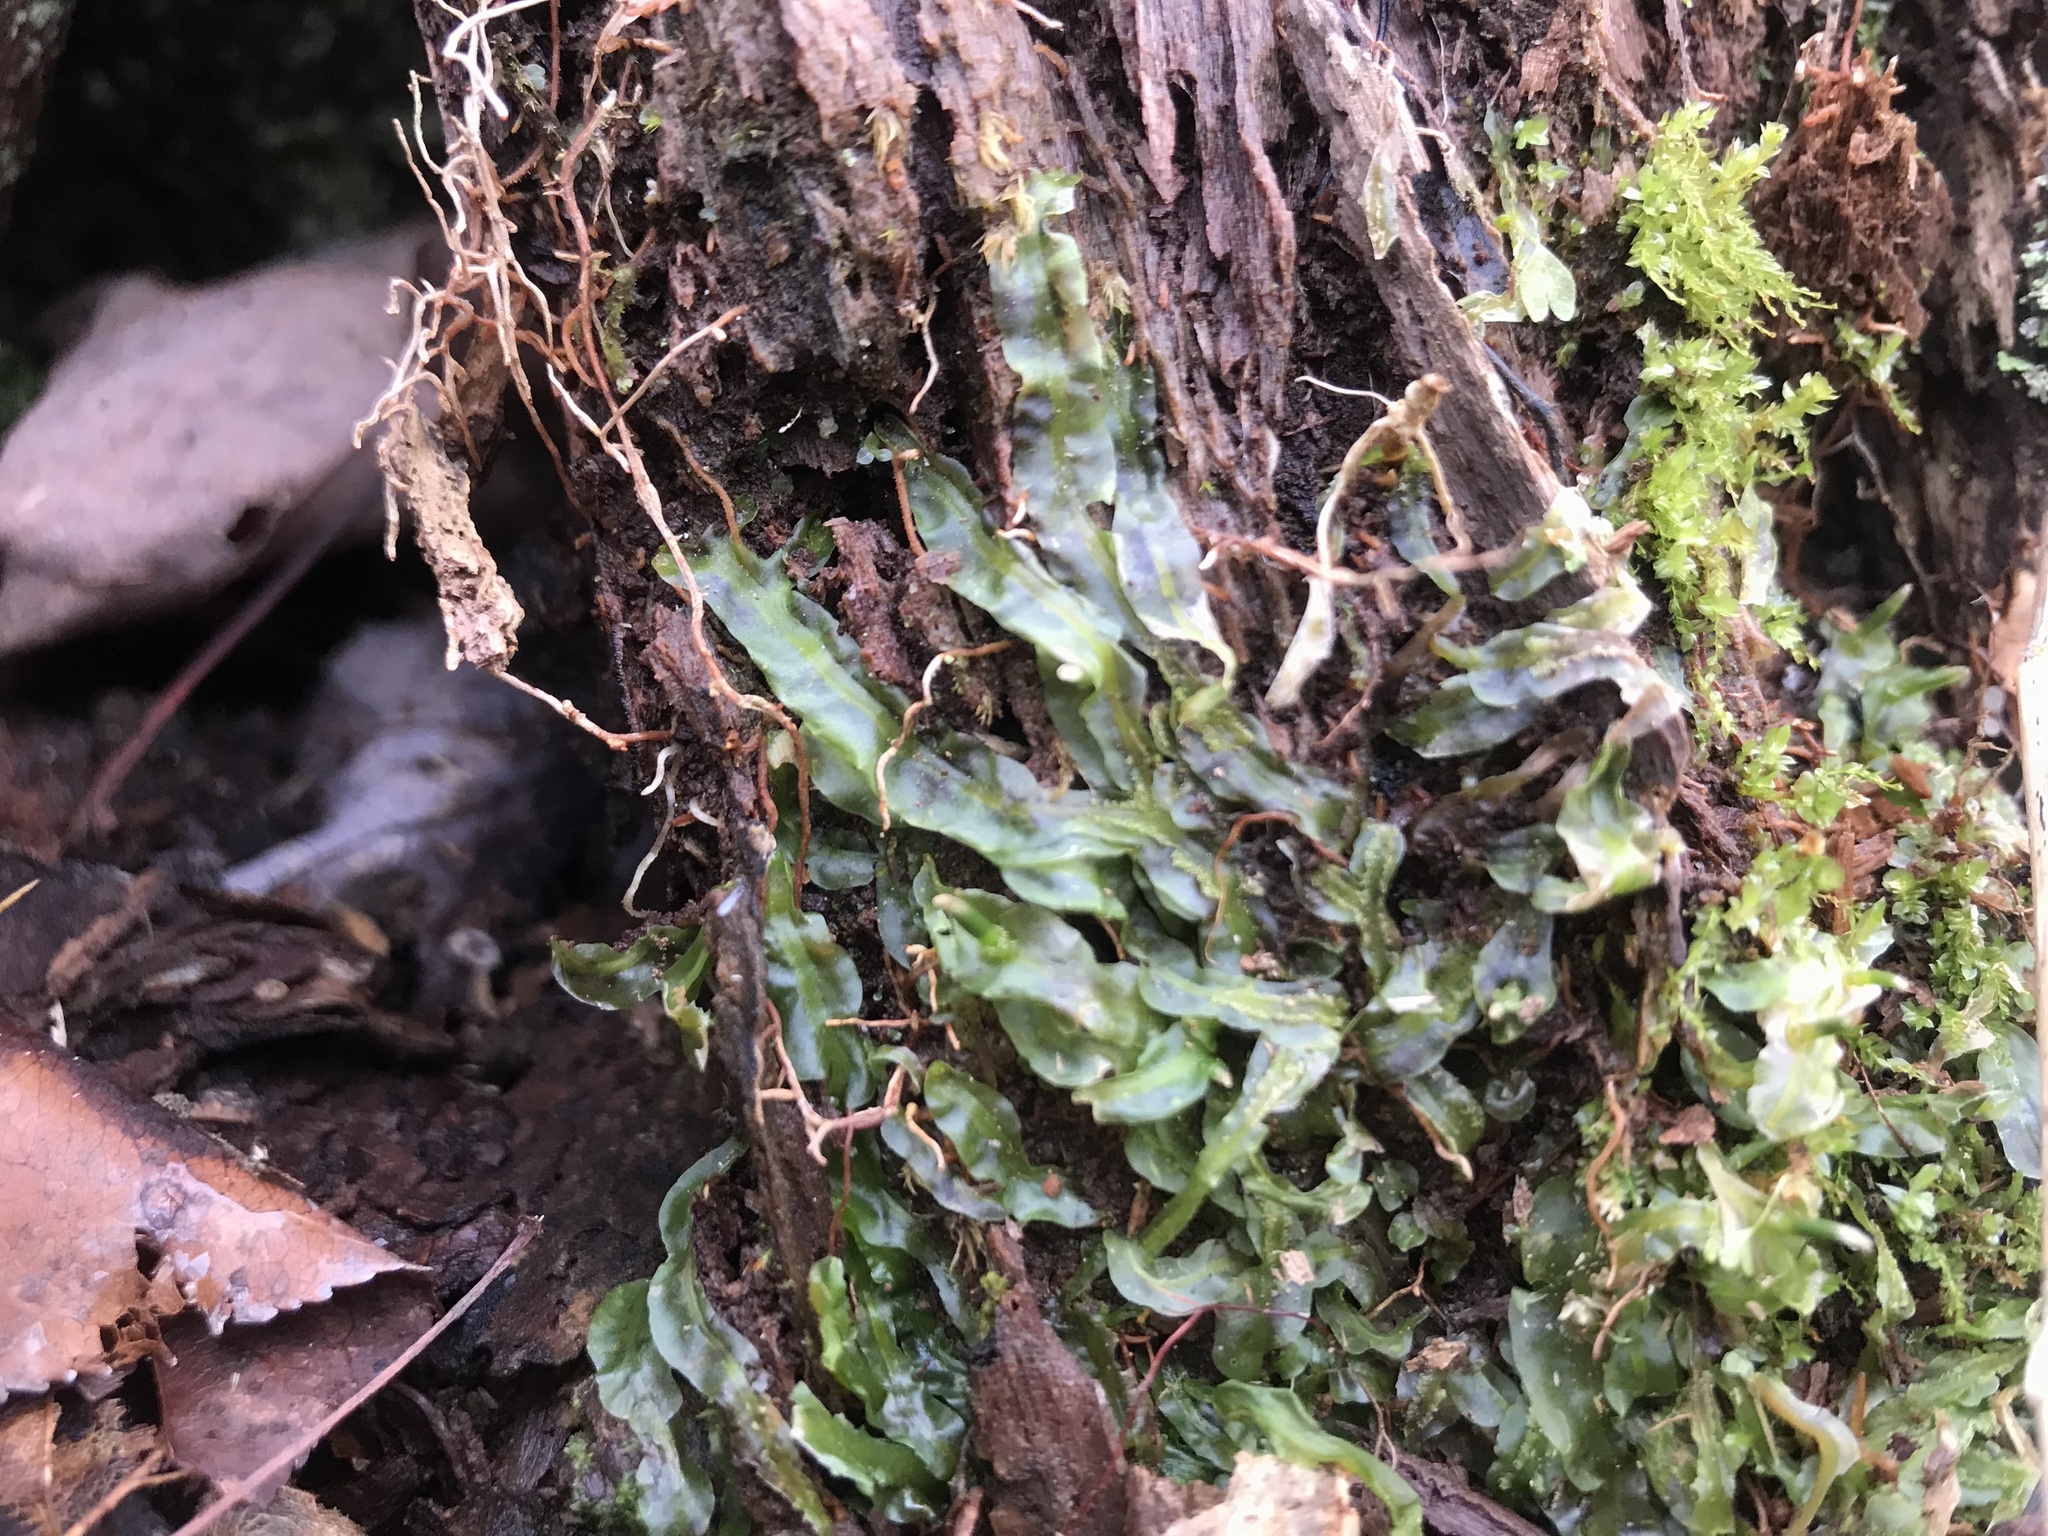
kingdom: Plantae
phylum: Marchantiophyta
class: Jungermanniopsida
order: Pallaviciniales
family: Pallaviciniaceae
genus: Pallavicinia
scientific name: Pallavicinia lyellii
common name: Veilwort
